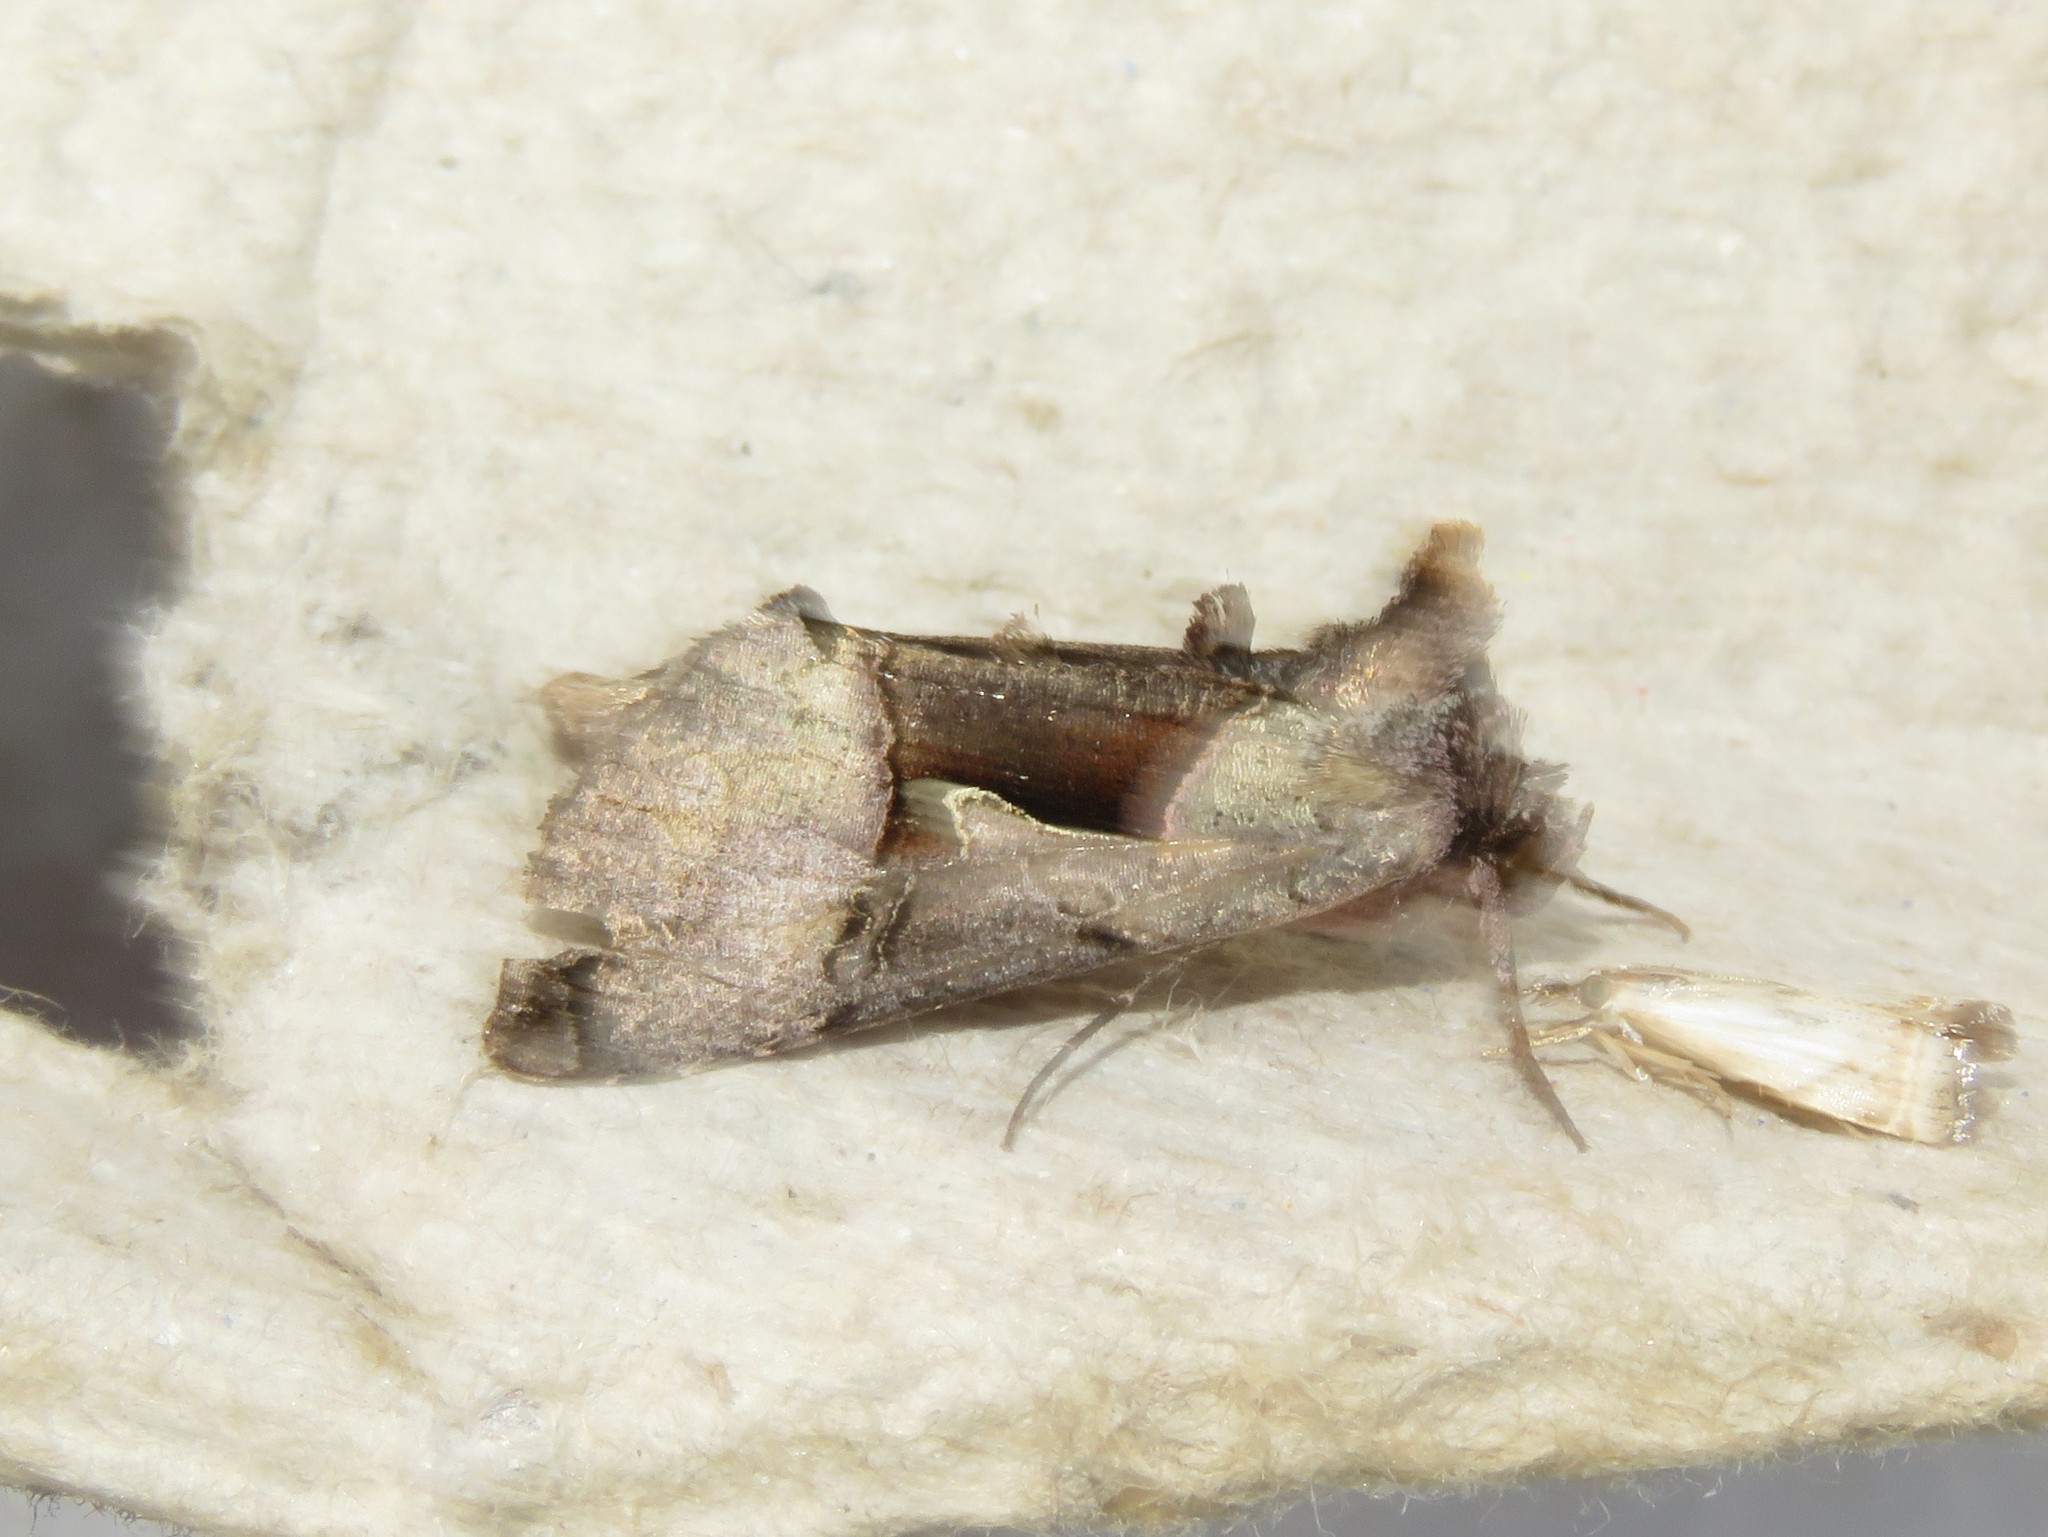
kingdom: Animalia
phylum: Arthropoda
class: Insecta
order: Lepidoptera
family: Noctuidae
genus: Autographa
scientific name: Autographa ampla
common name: Large looper moth
